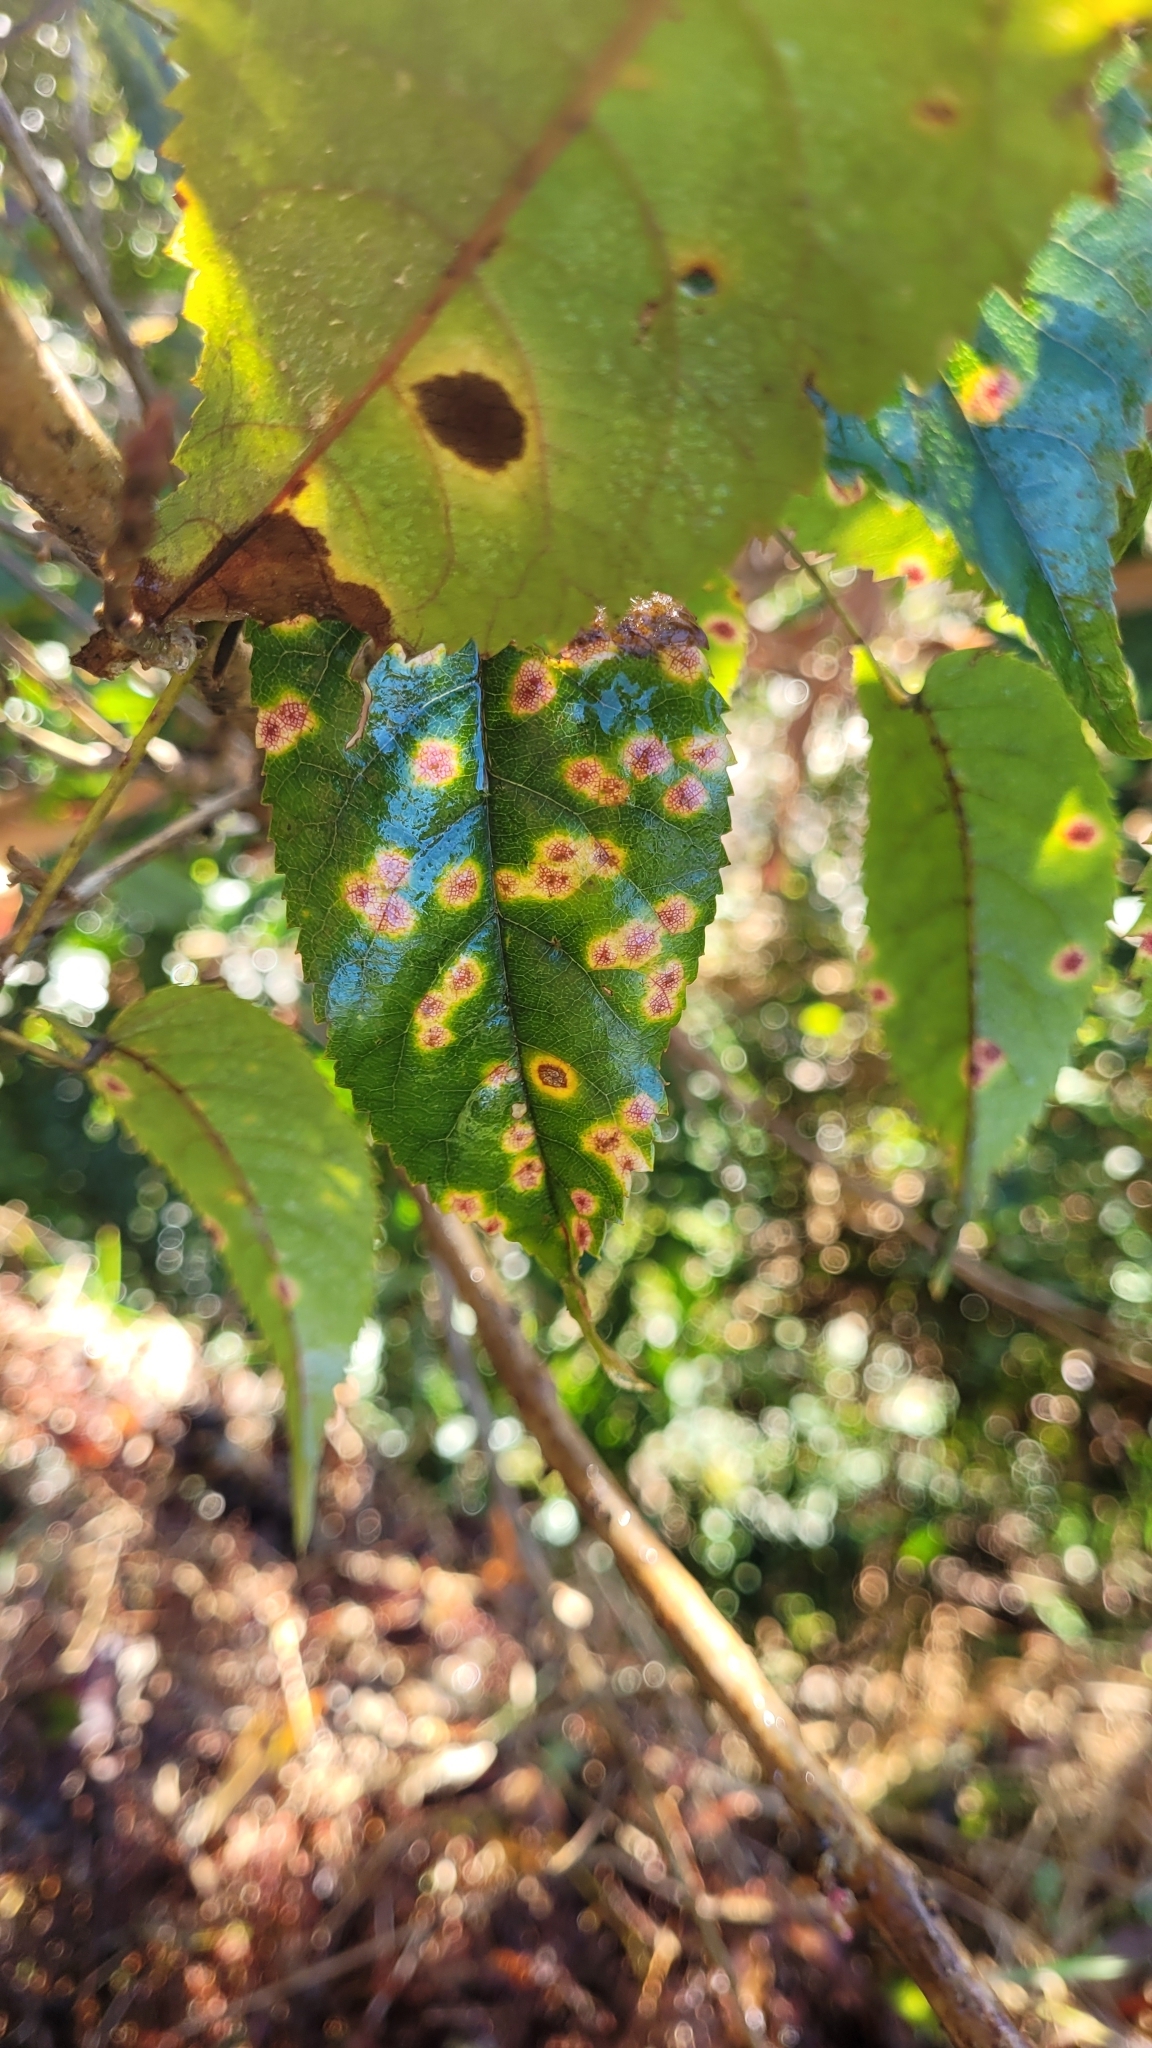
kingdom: Fungi
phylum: Basidiomycota
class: Pucciniomycetes
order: Pucciniales
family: Phragmidiaceae
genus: Hamaspora
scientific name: Hamaspora australis
